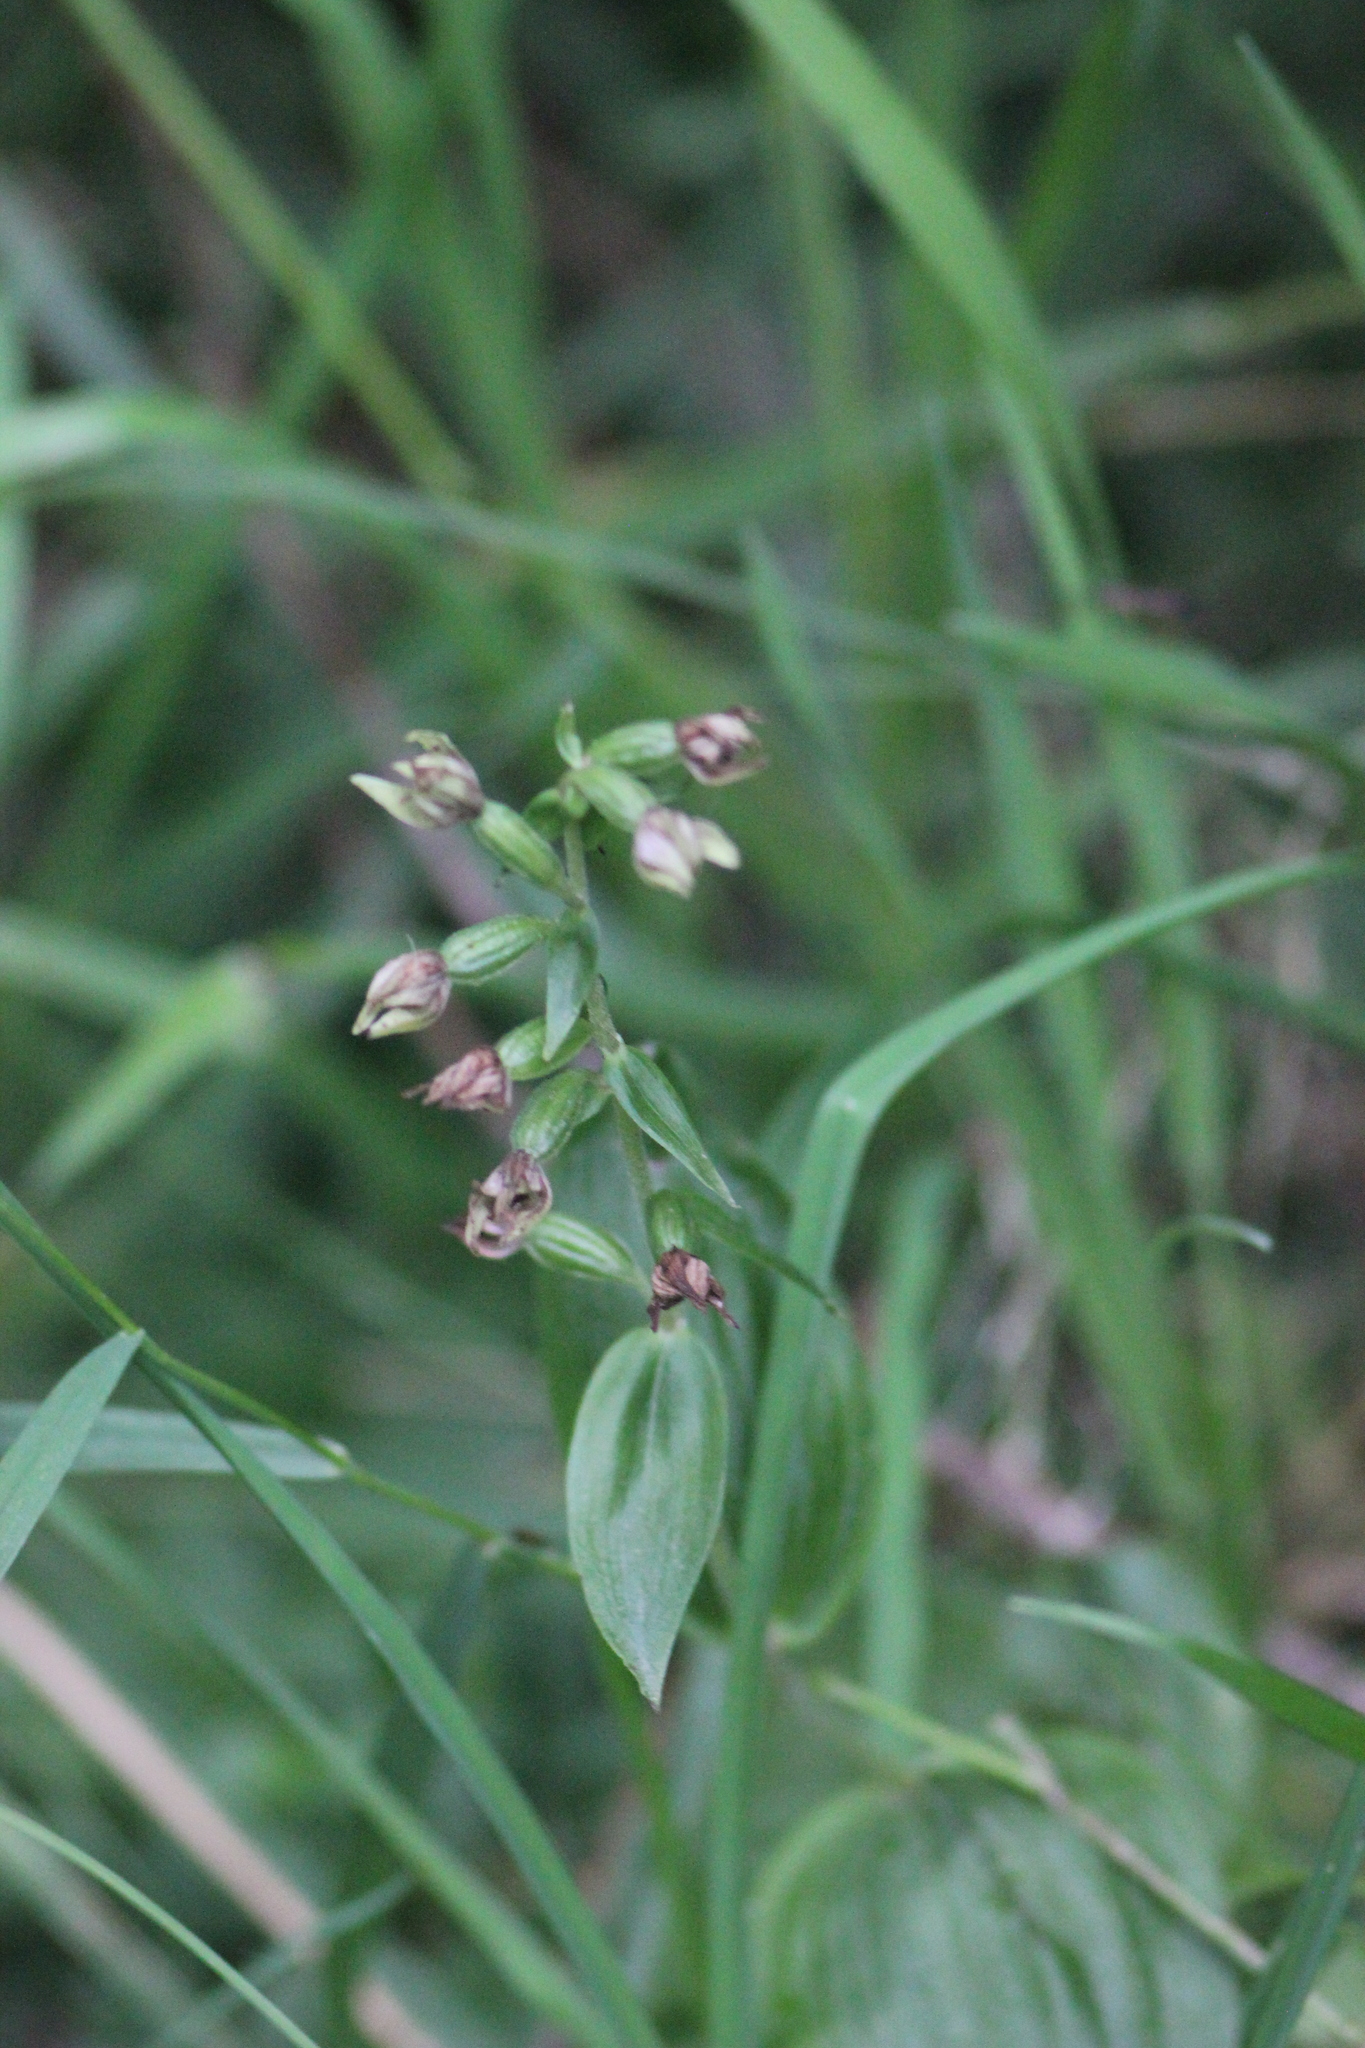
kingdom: Plantae
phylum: Tracheophyta
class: Liliopsida
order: Asparagales
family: Orchidaceae
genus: Epipactis
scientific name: Epipactis helleborine
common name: Broad-leaved helleborine
